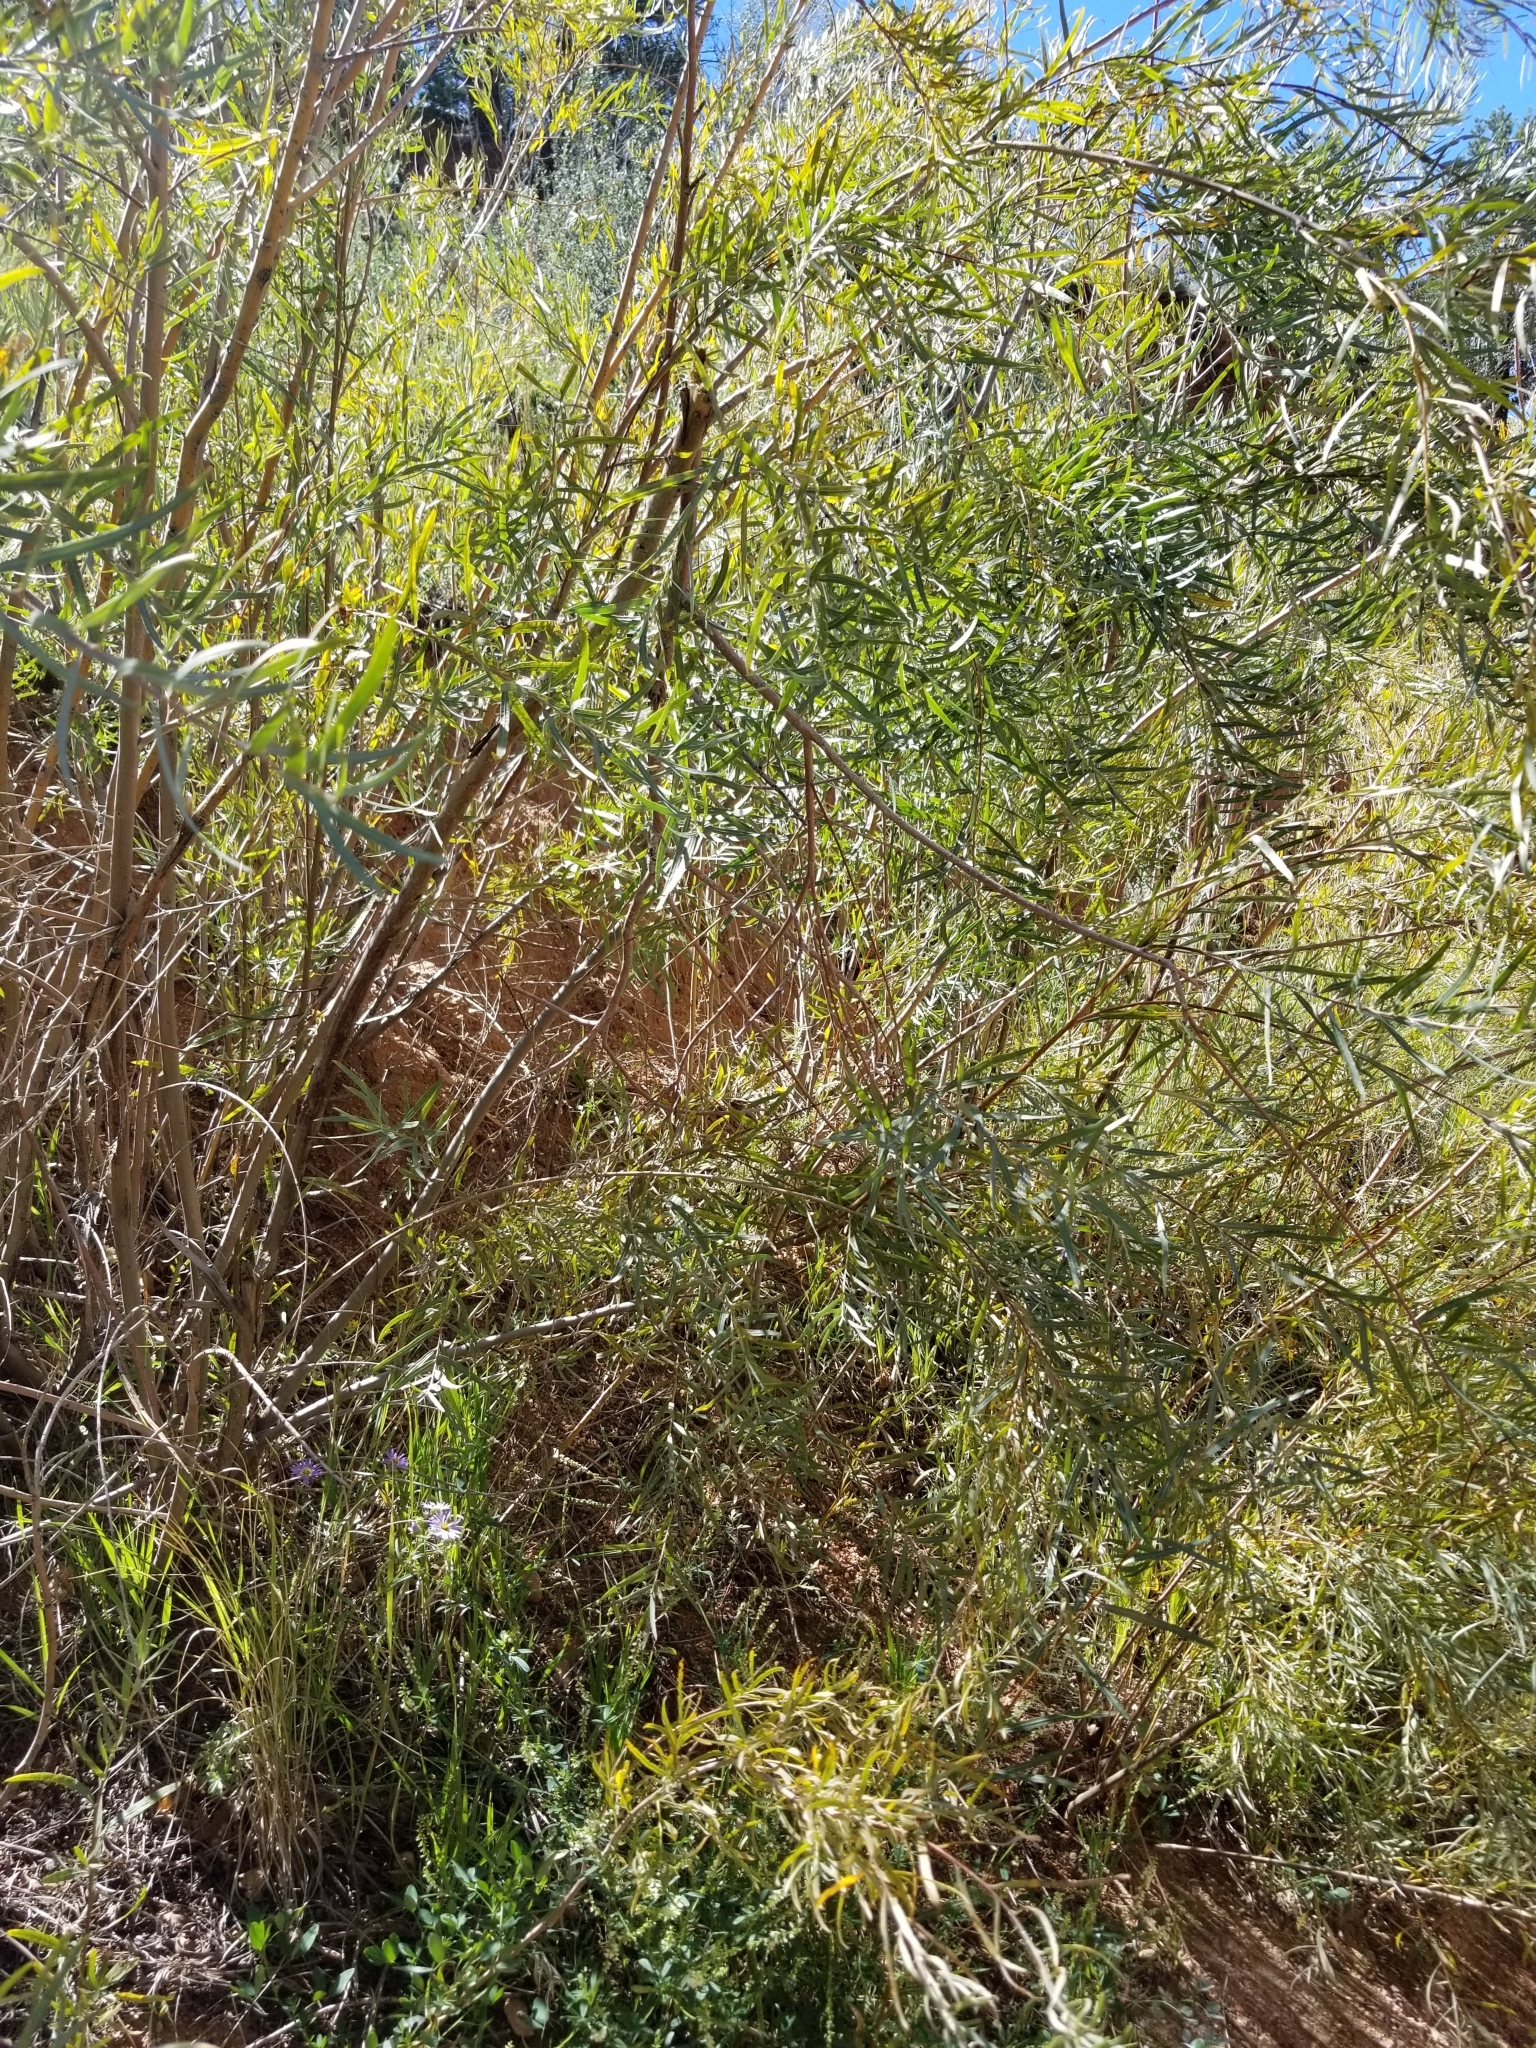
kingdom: Plantae
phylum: Tracheophyta
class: Magnoliopsida
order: Malpighiales
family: Salicaceae
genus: Salix
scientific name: Salix exigua
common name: Coyote willow
